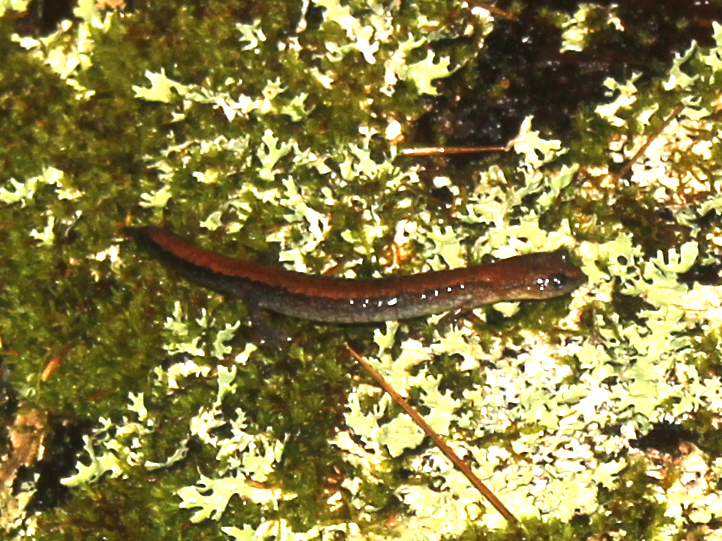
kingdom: Animalia
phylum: Chordata
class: Amphibia
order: Caudata
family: Plethodontidae
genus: Plethodon
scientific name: Plethodon cinereus
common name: Redback salamander
